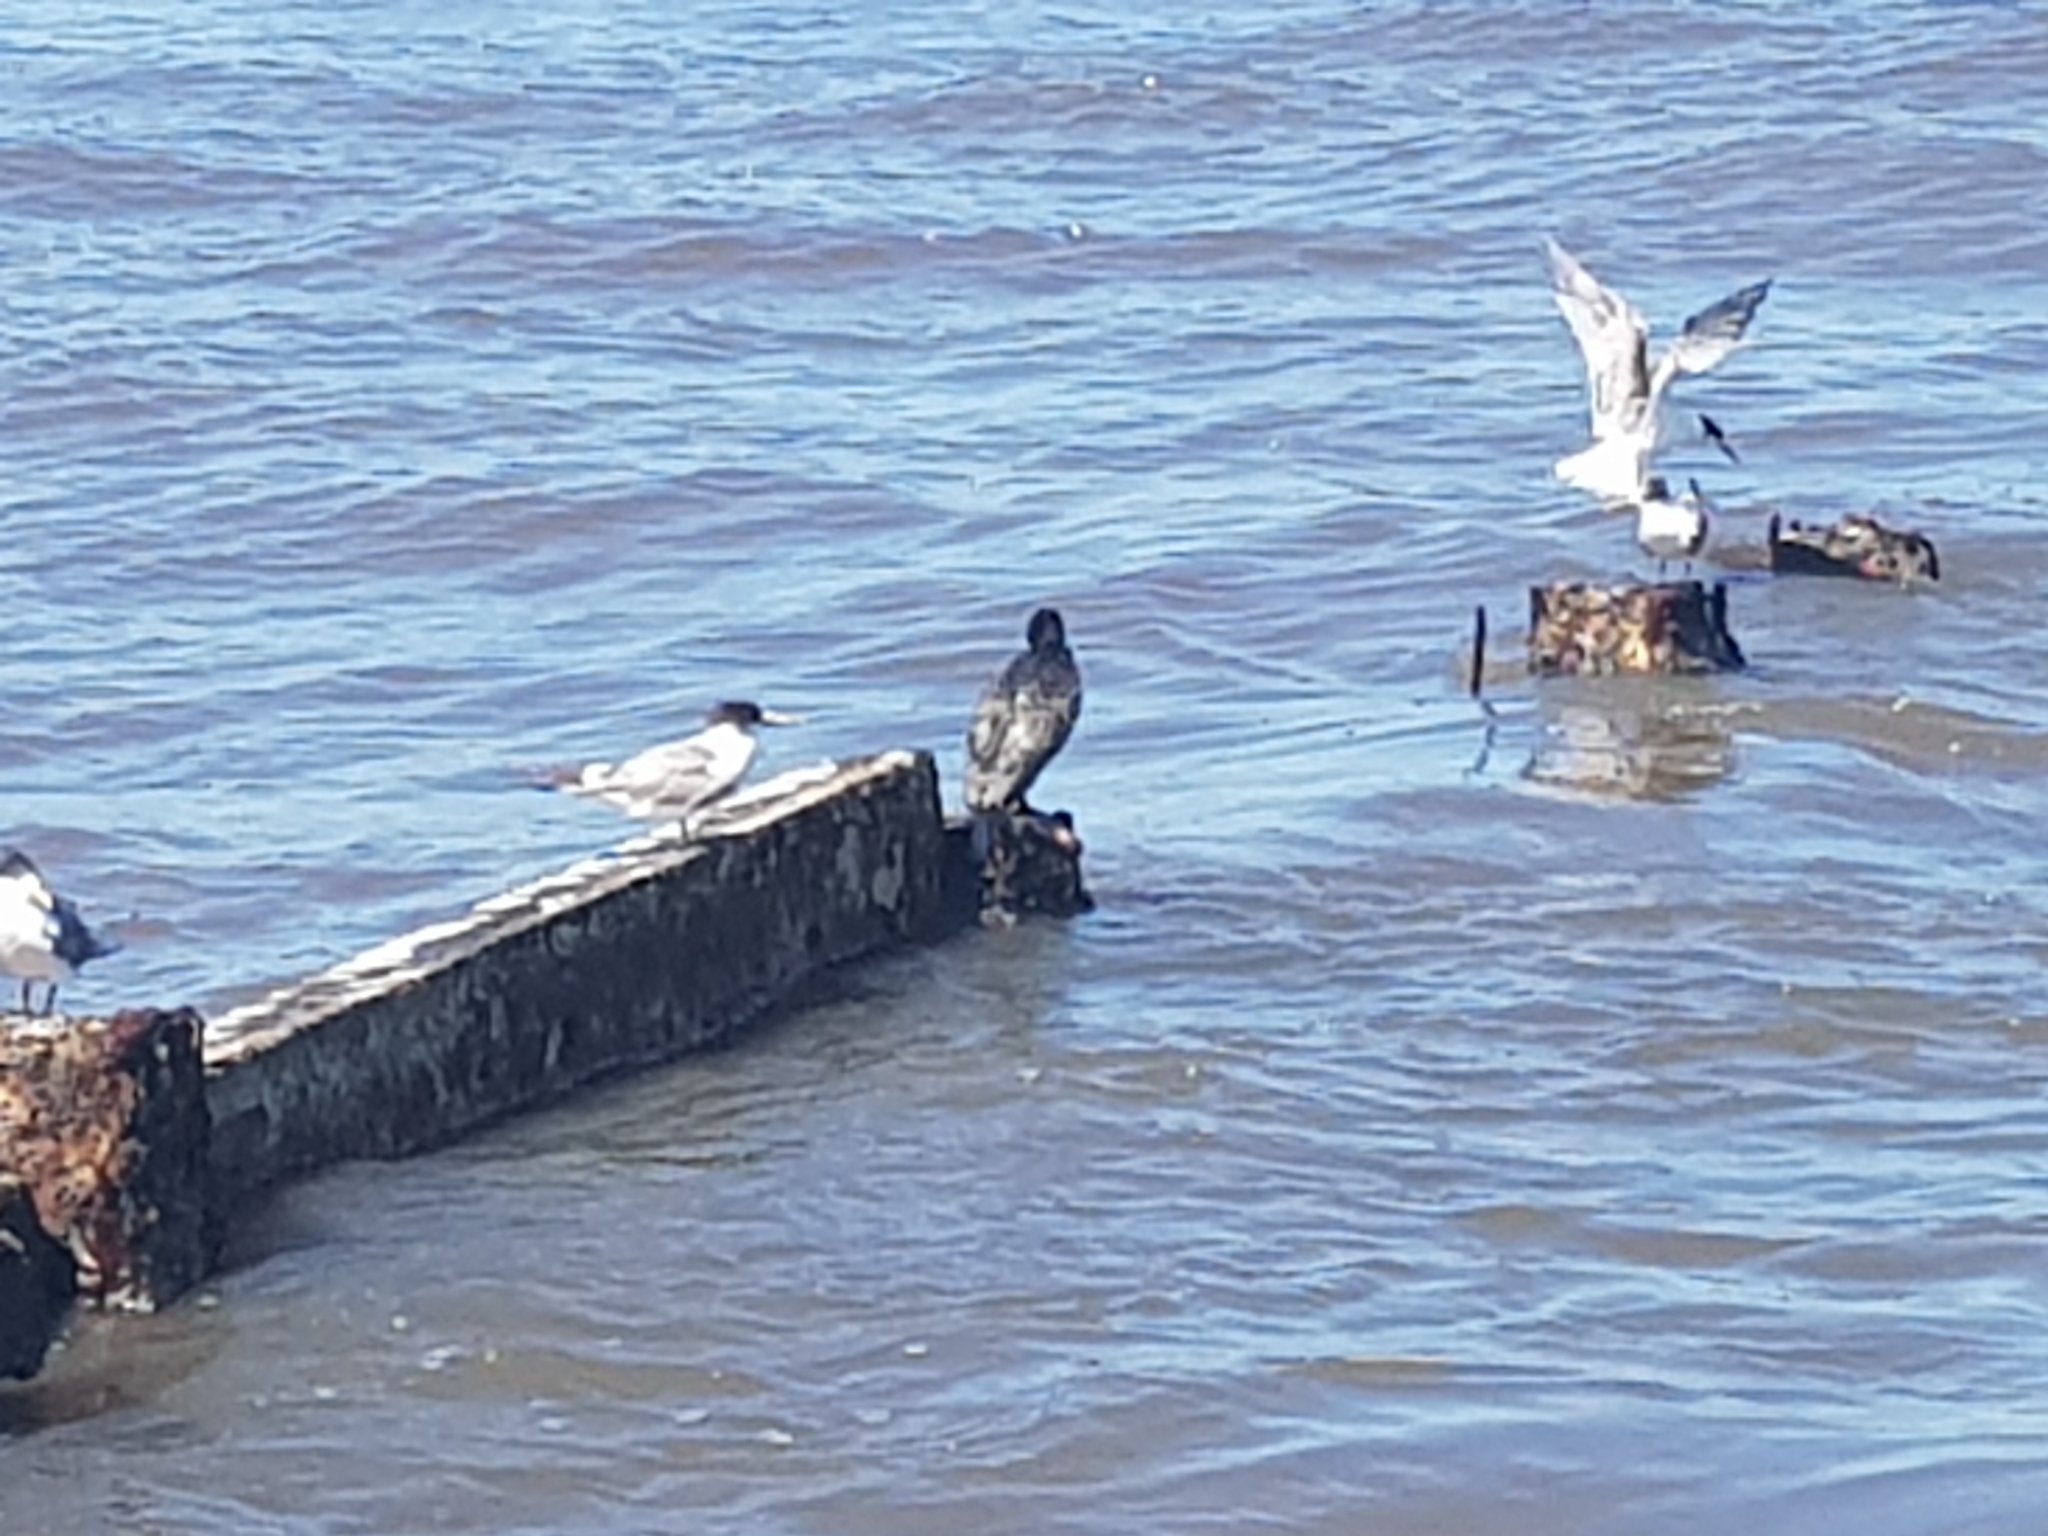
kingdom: Animalia
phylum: Chordata
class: Aves
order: Charadriiformes
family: Laridae
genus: Thalasseus
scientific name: Thalasseus bergii
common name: Greater crested tern
